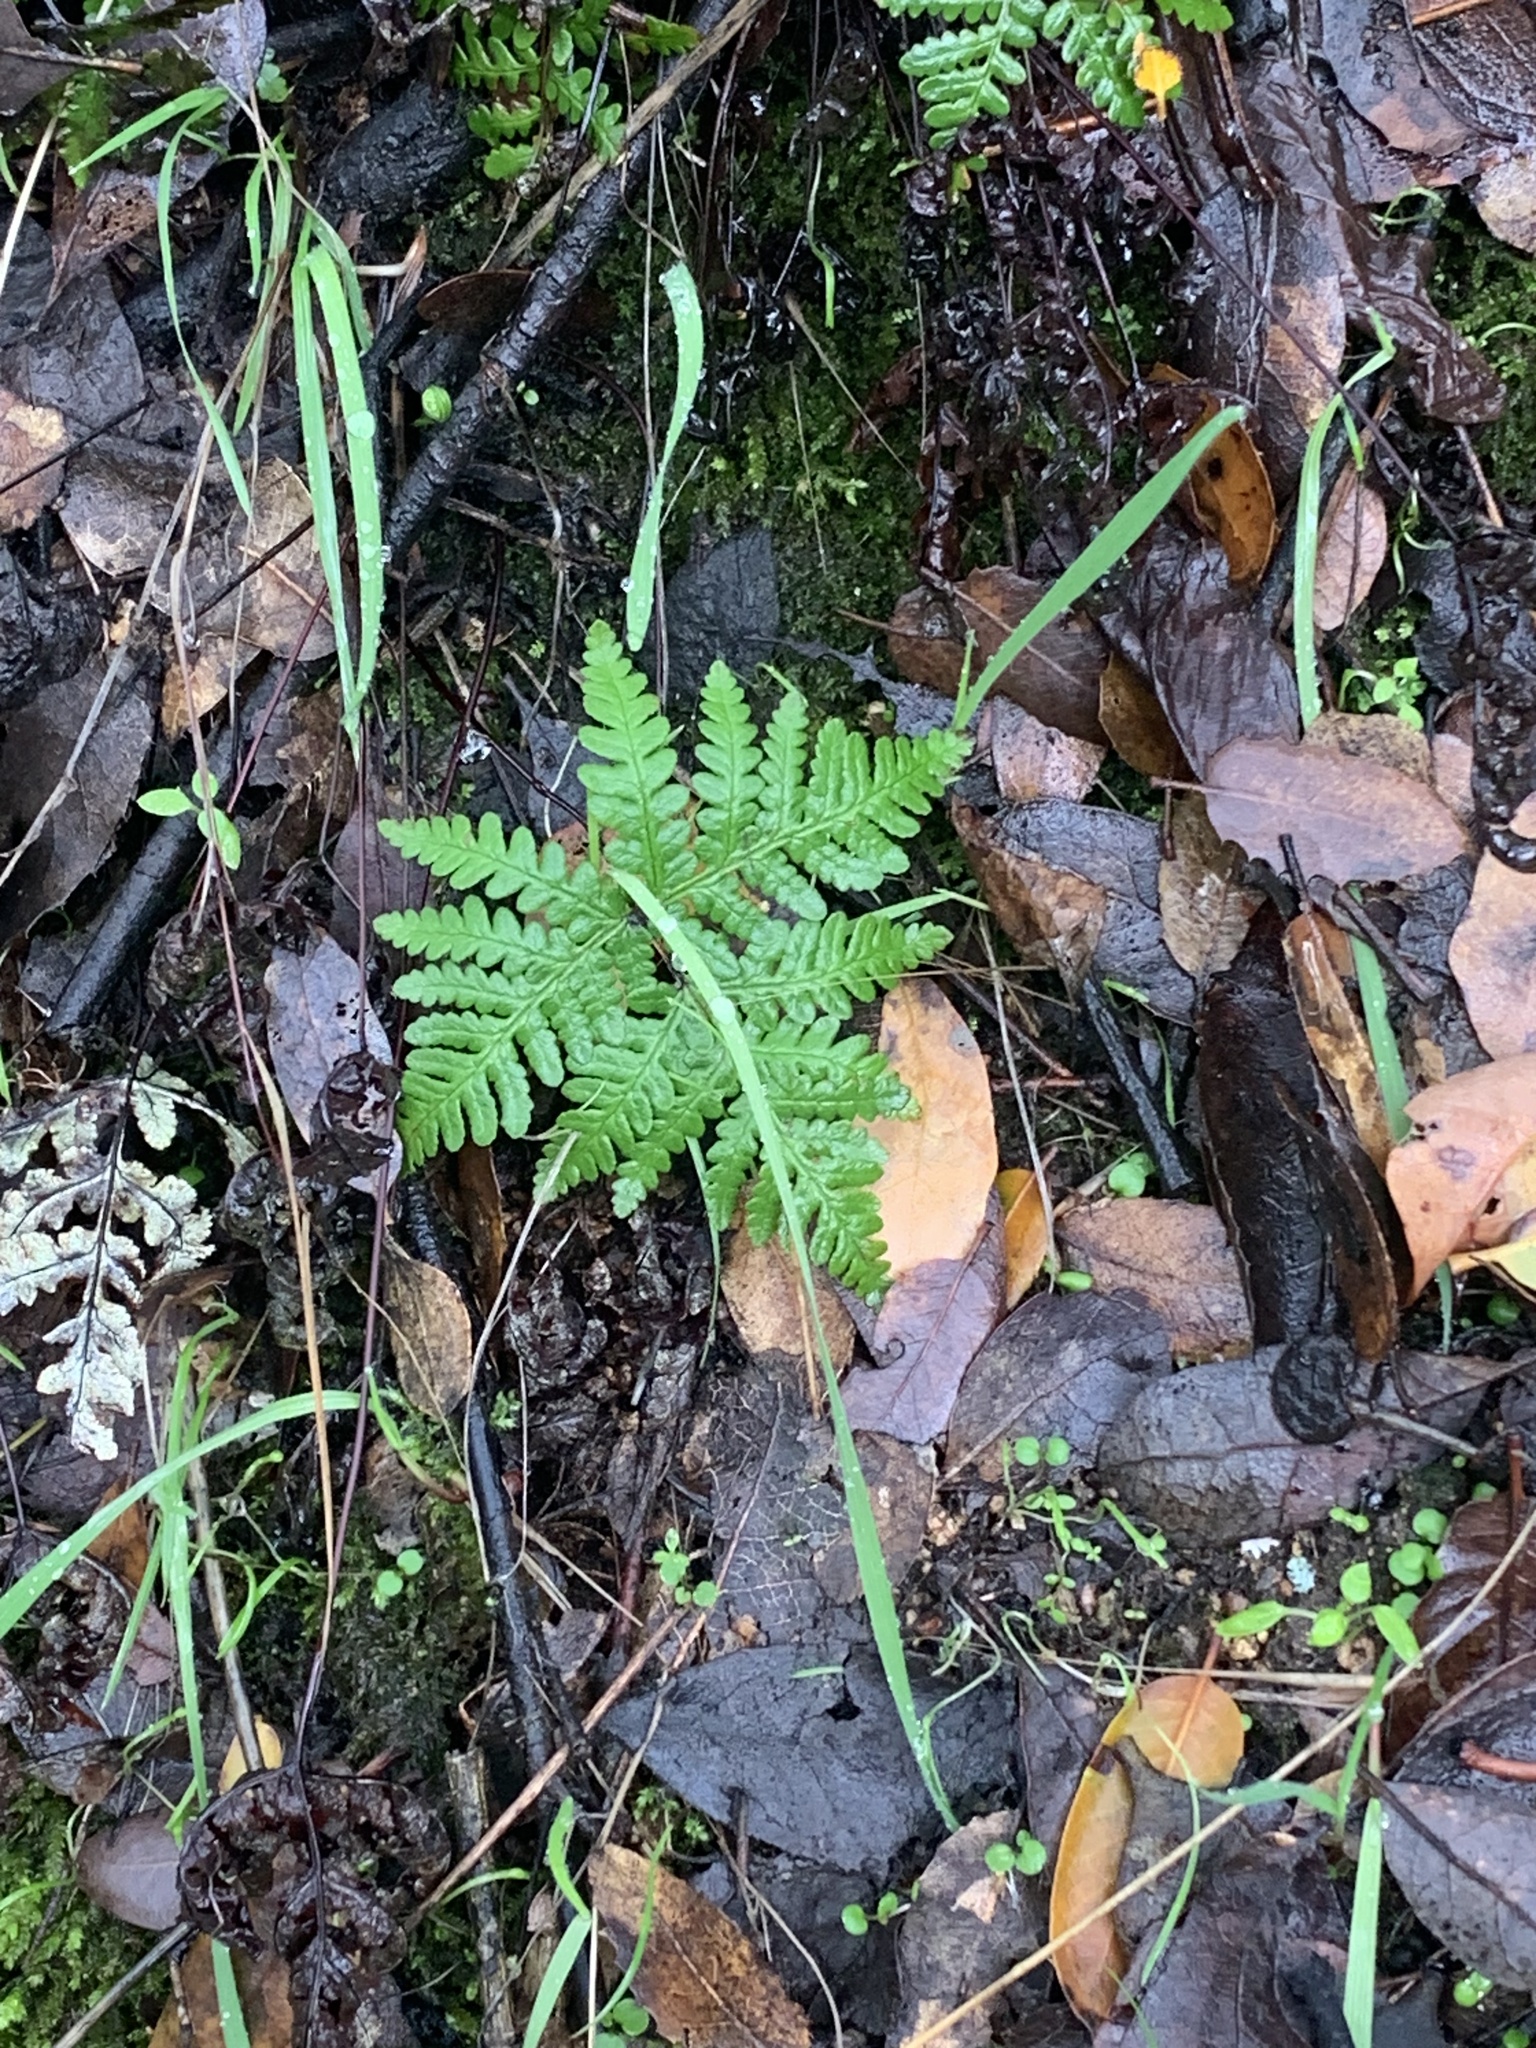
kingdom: Plantae
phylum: Tracheophyta
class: Polypodiopsida
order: Polypodiales
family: Pteridaceae
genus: Pentagramma
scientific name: Pentagramma triangularis
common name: Gold fern
